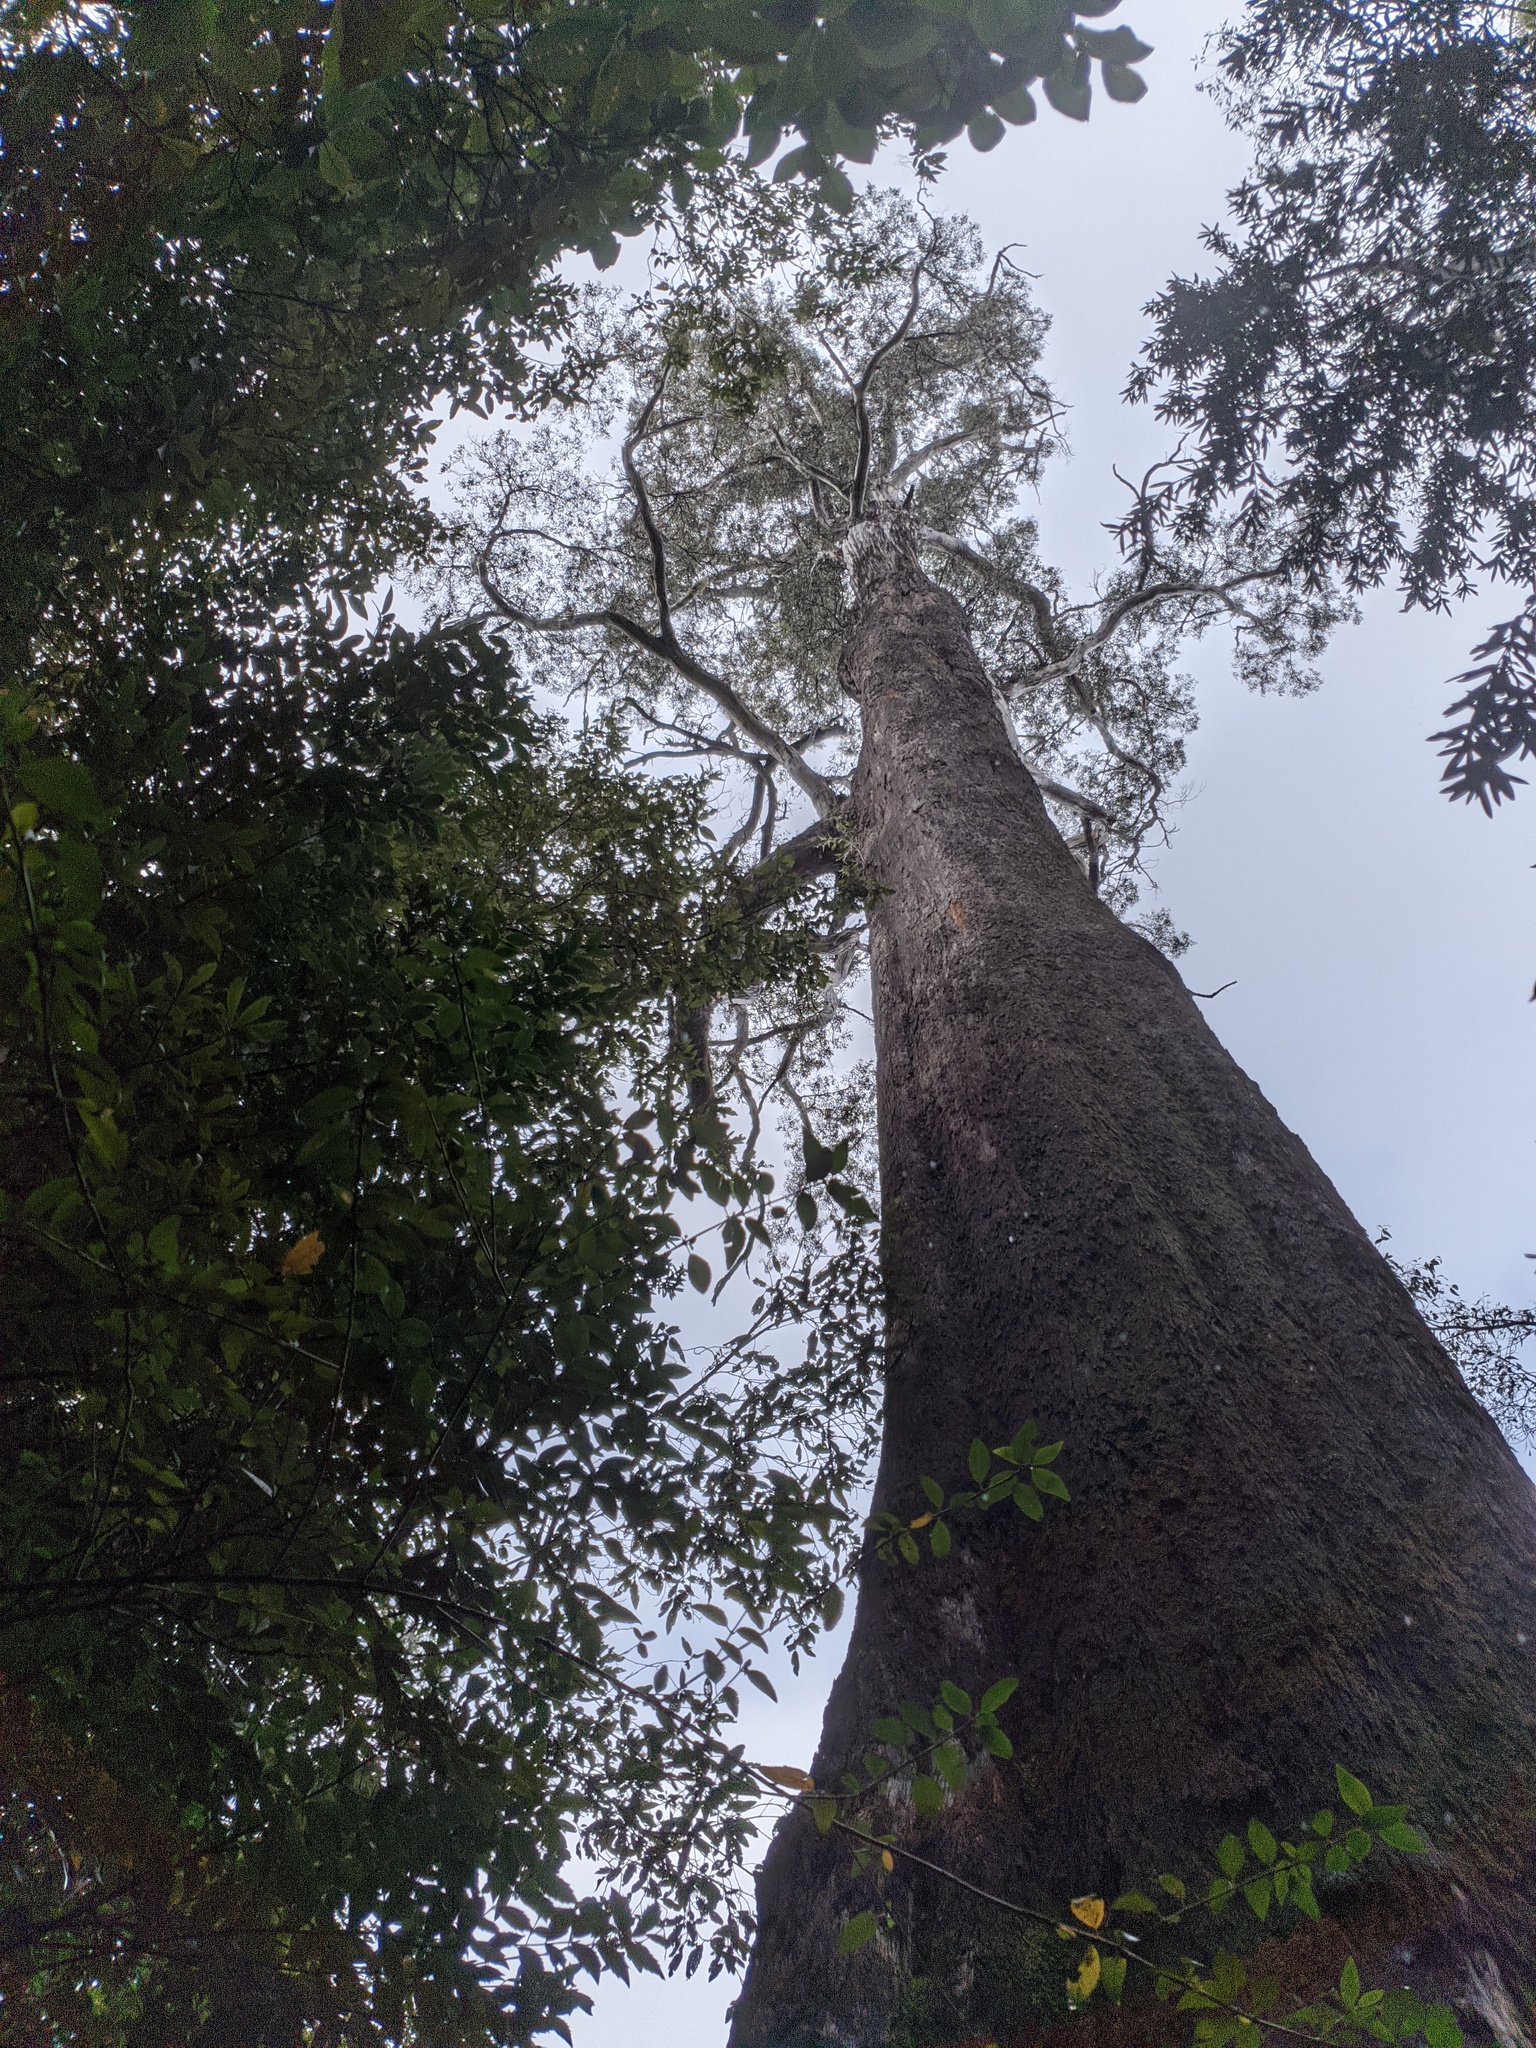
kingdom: Plantae
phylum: Tracheophyta
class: Magnoliopsida
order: Myrtales
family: Myrtaceae
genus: Eucalyptus
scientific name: Eucalyptus
